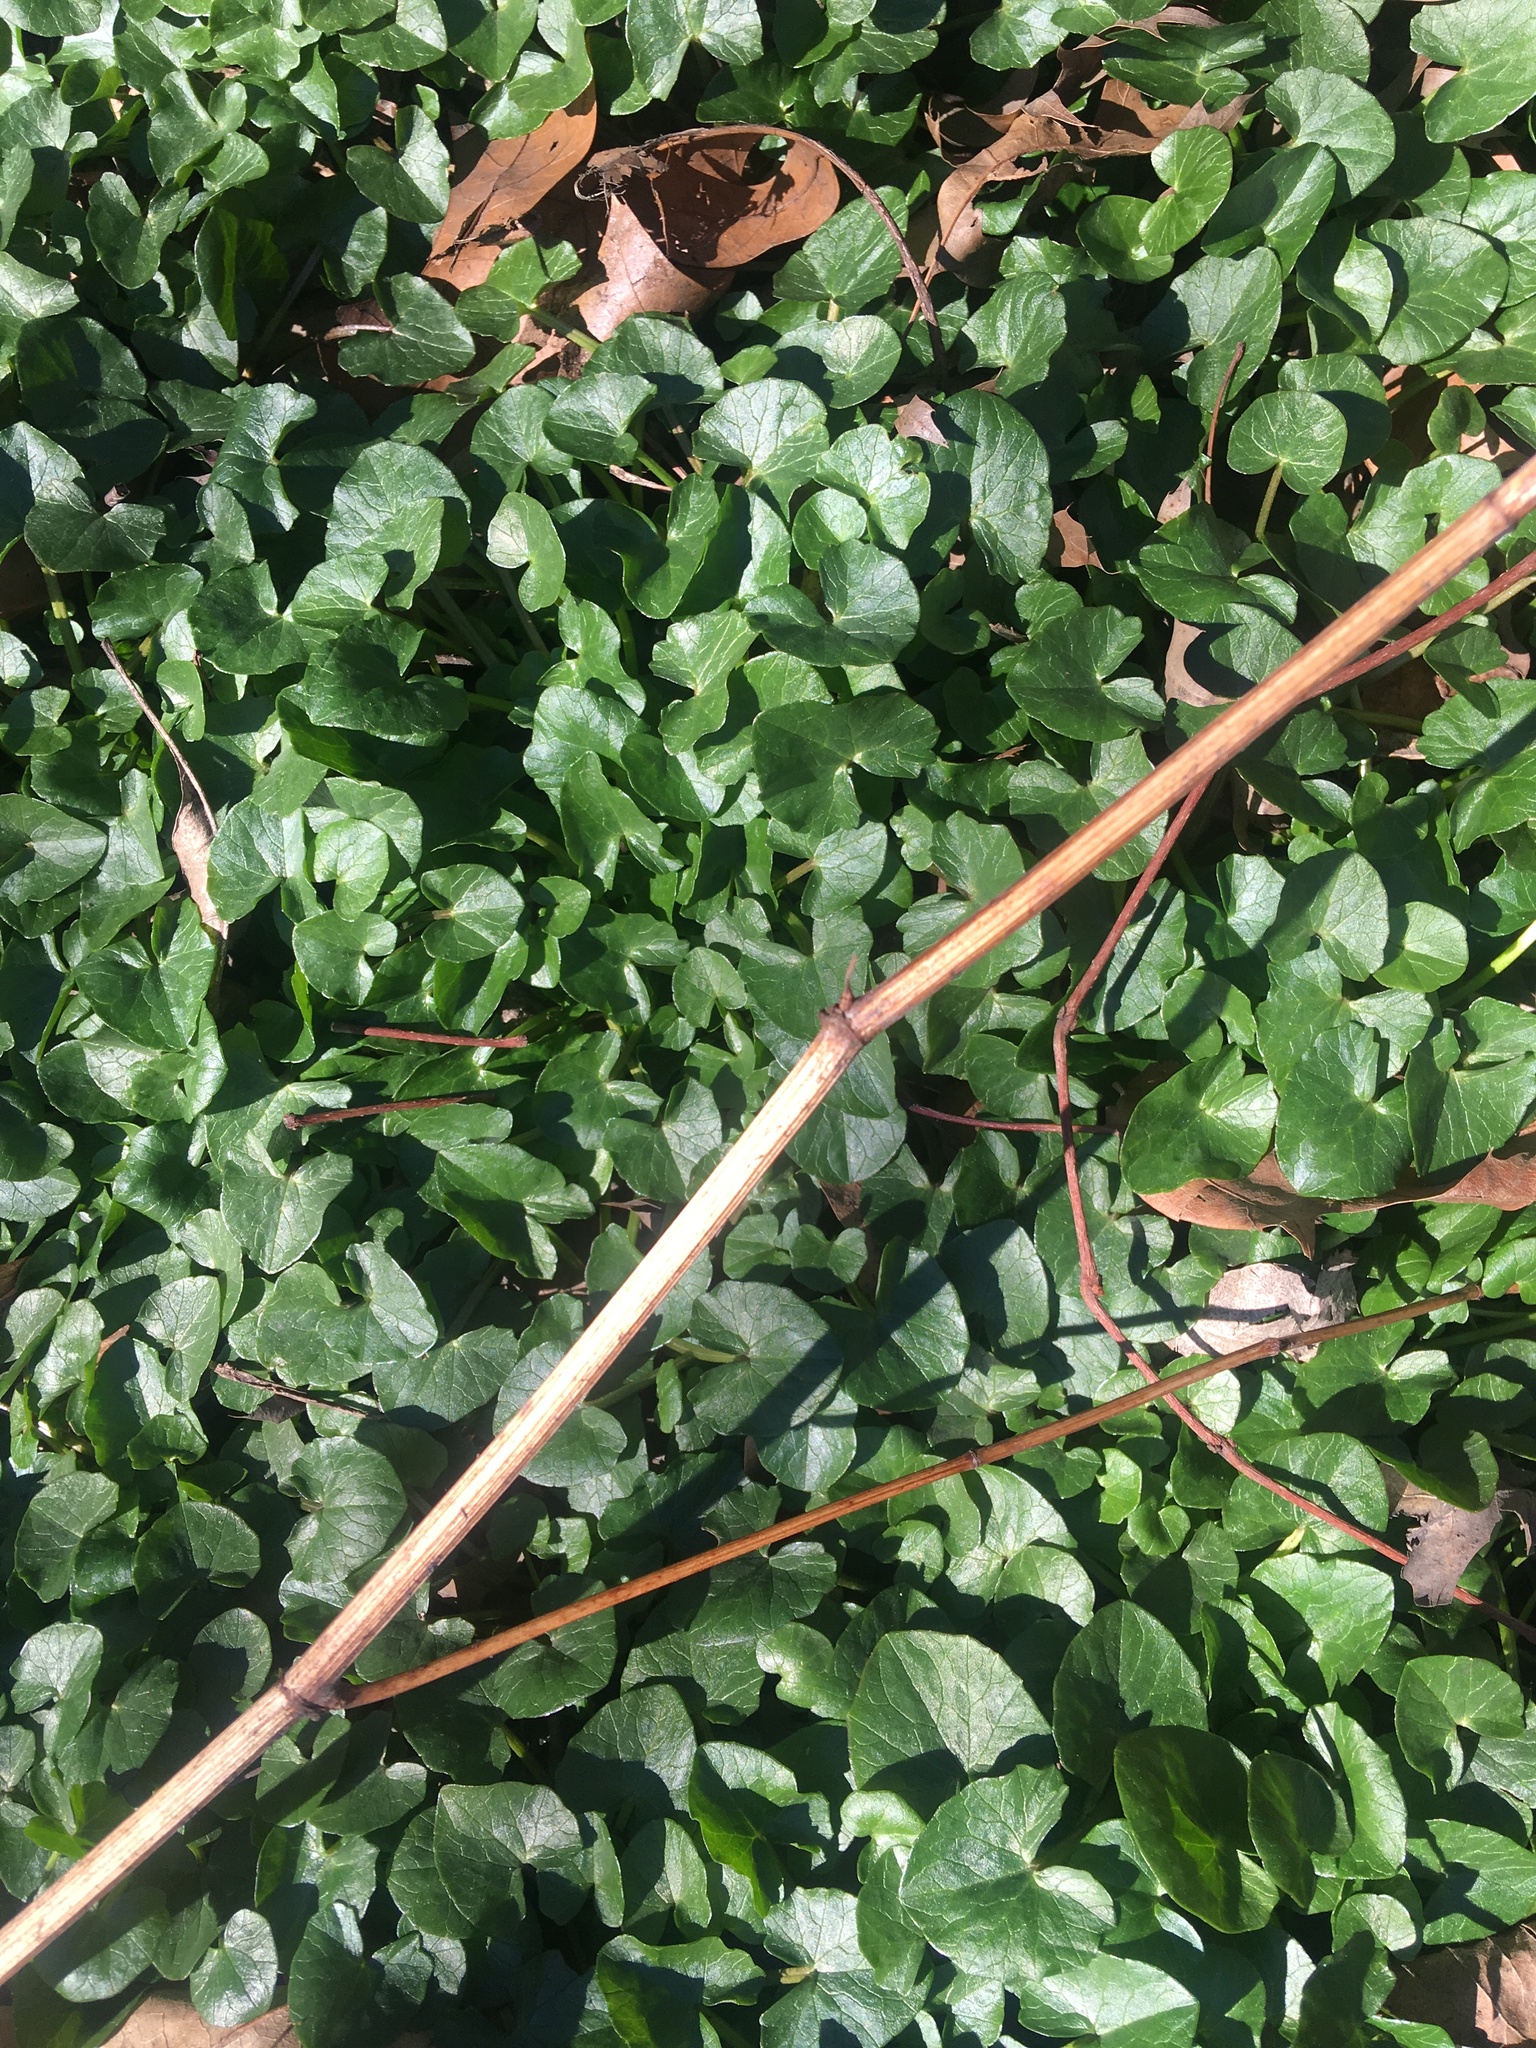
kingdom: Plantae
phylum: Tracheophyta
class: Magnoliopsida
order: Ranunculales
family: Ranunculaceae
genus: Ficaria
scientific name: Ficaria verna
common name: Lesser celandine
